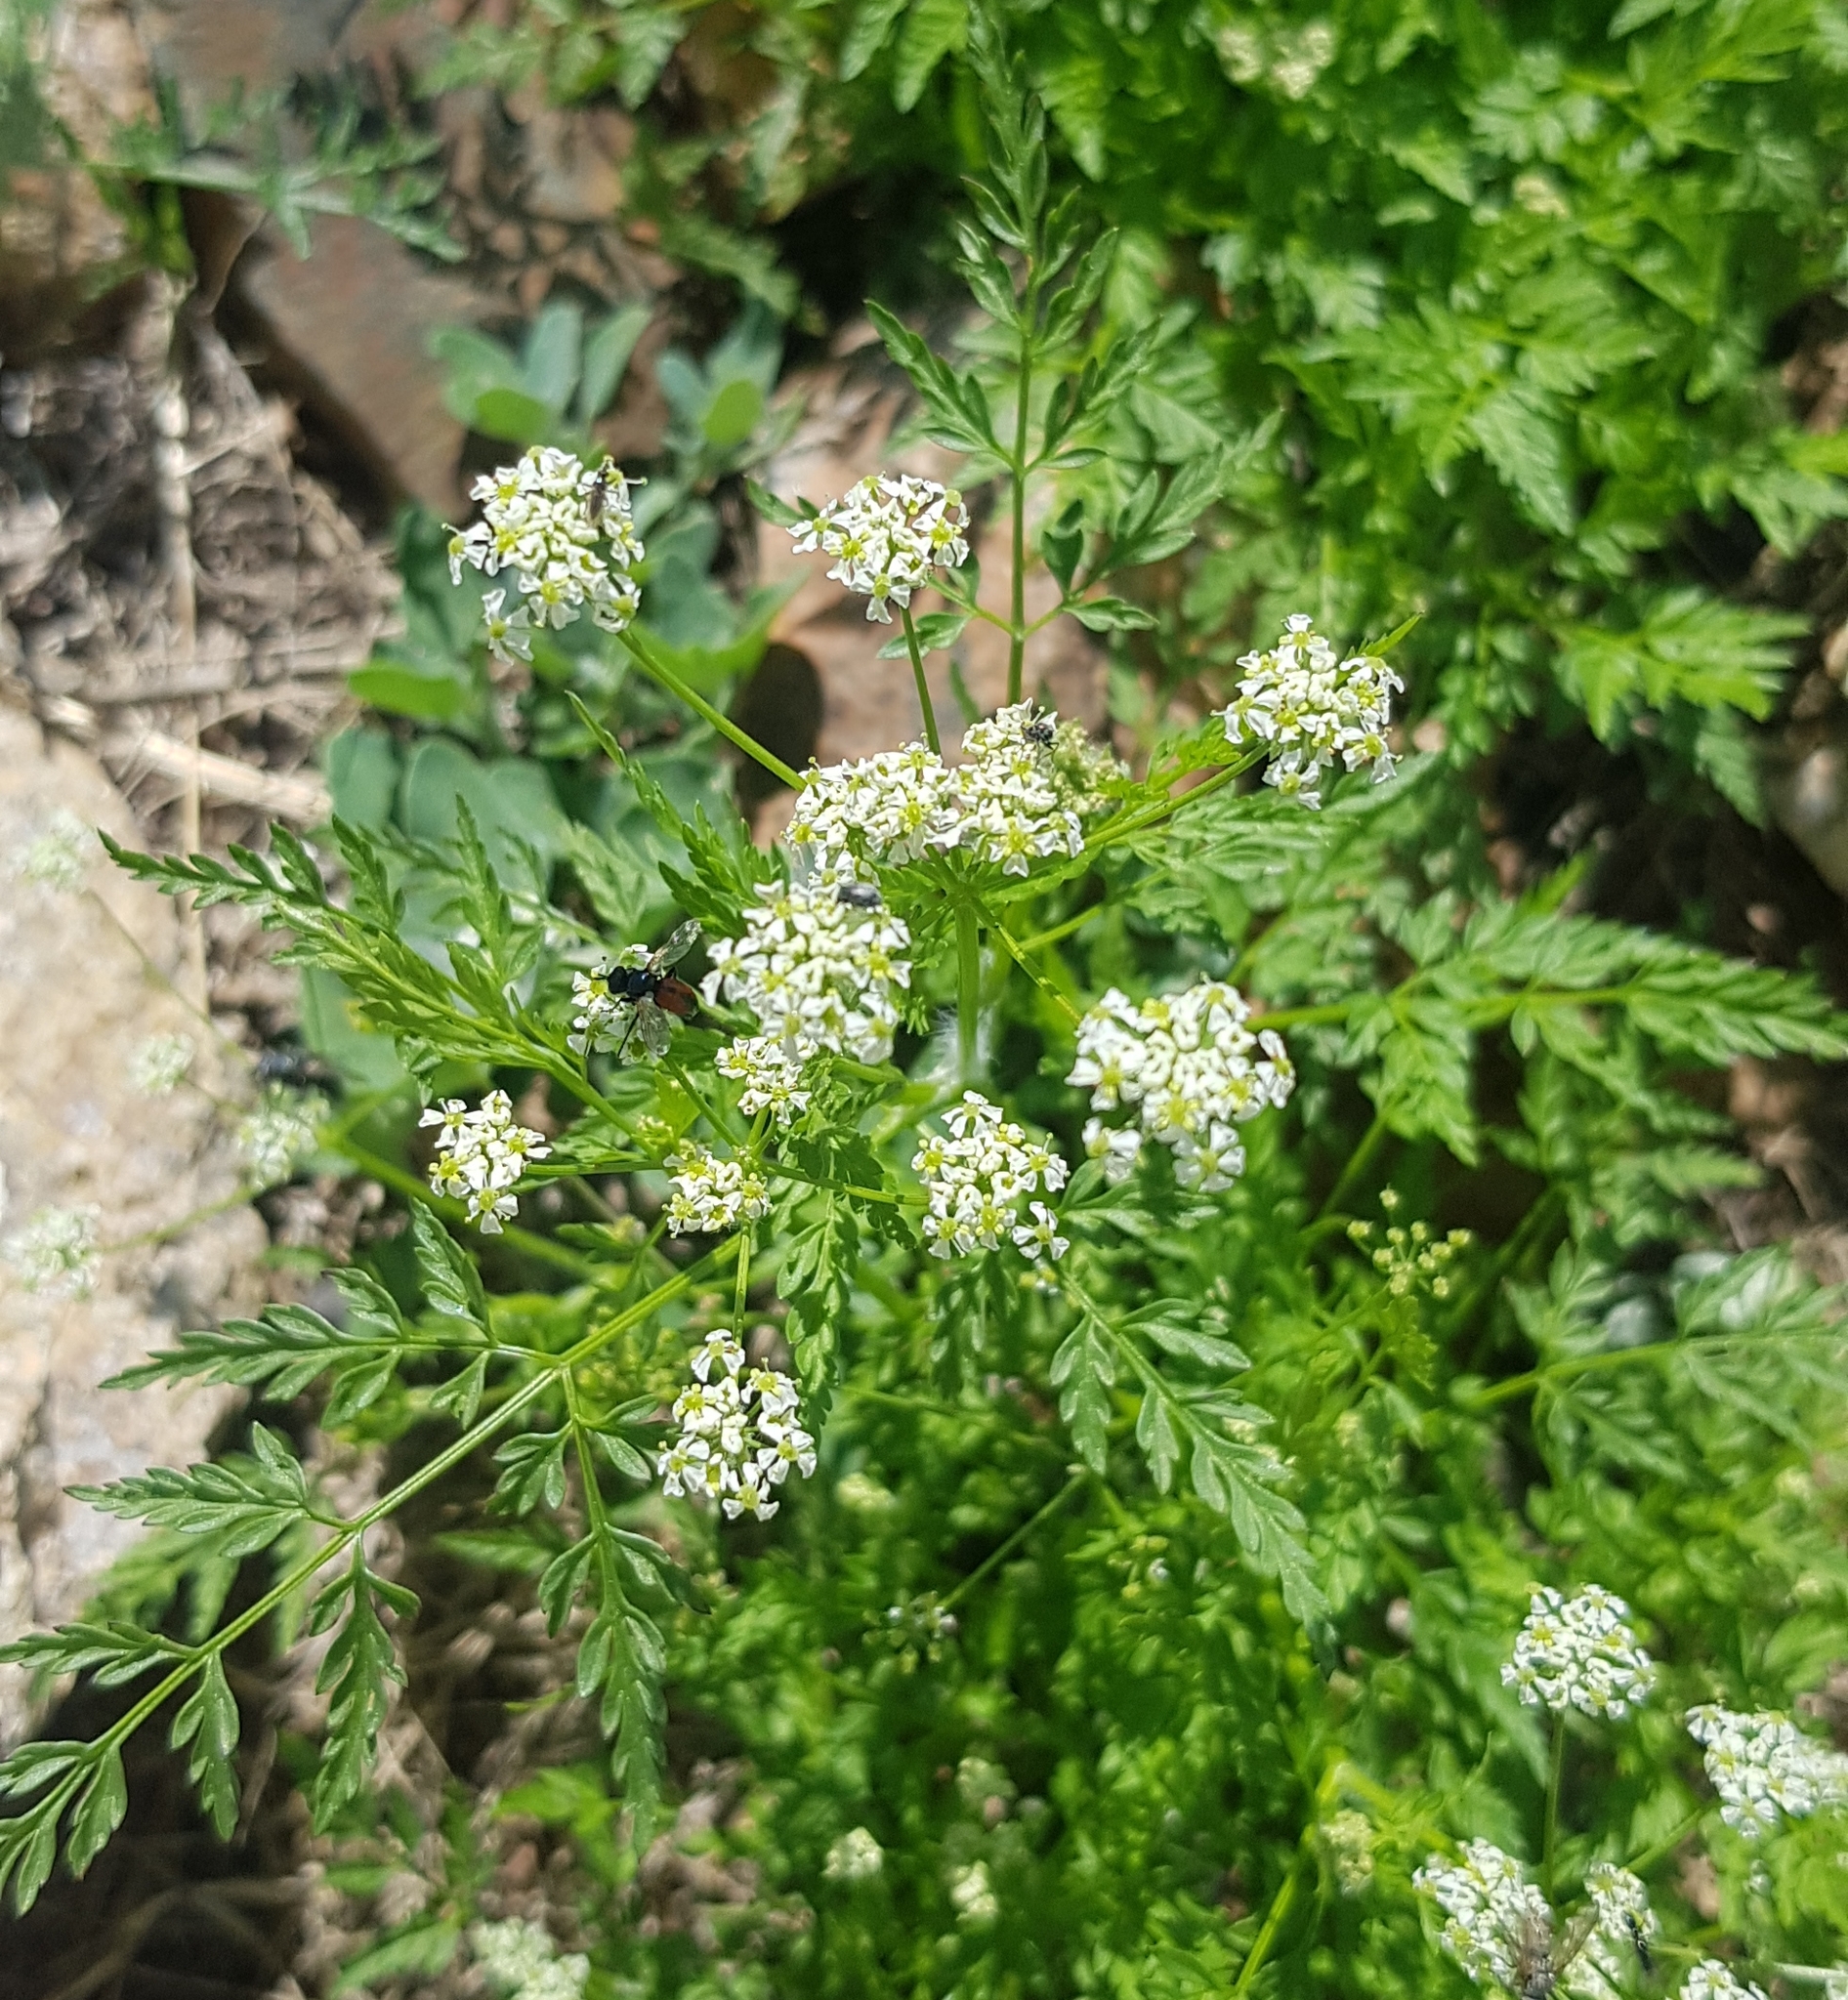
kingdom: Plantae
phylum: Tracheophyta
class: Magnoliopsida
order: Apiales
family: Apiaceae
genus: Sphallerocarpus
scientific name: Sphallerocarpus gracilis
